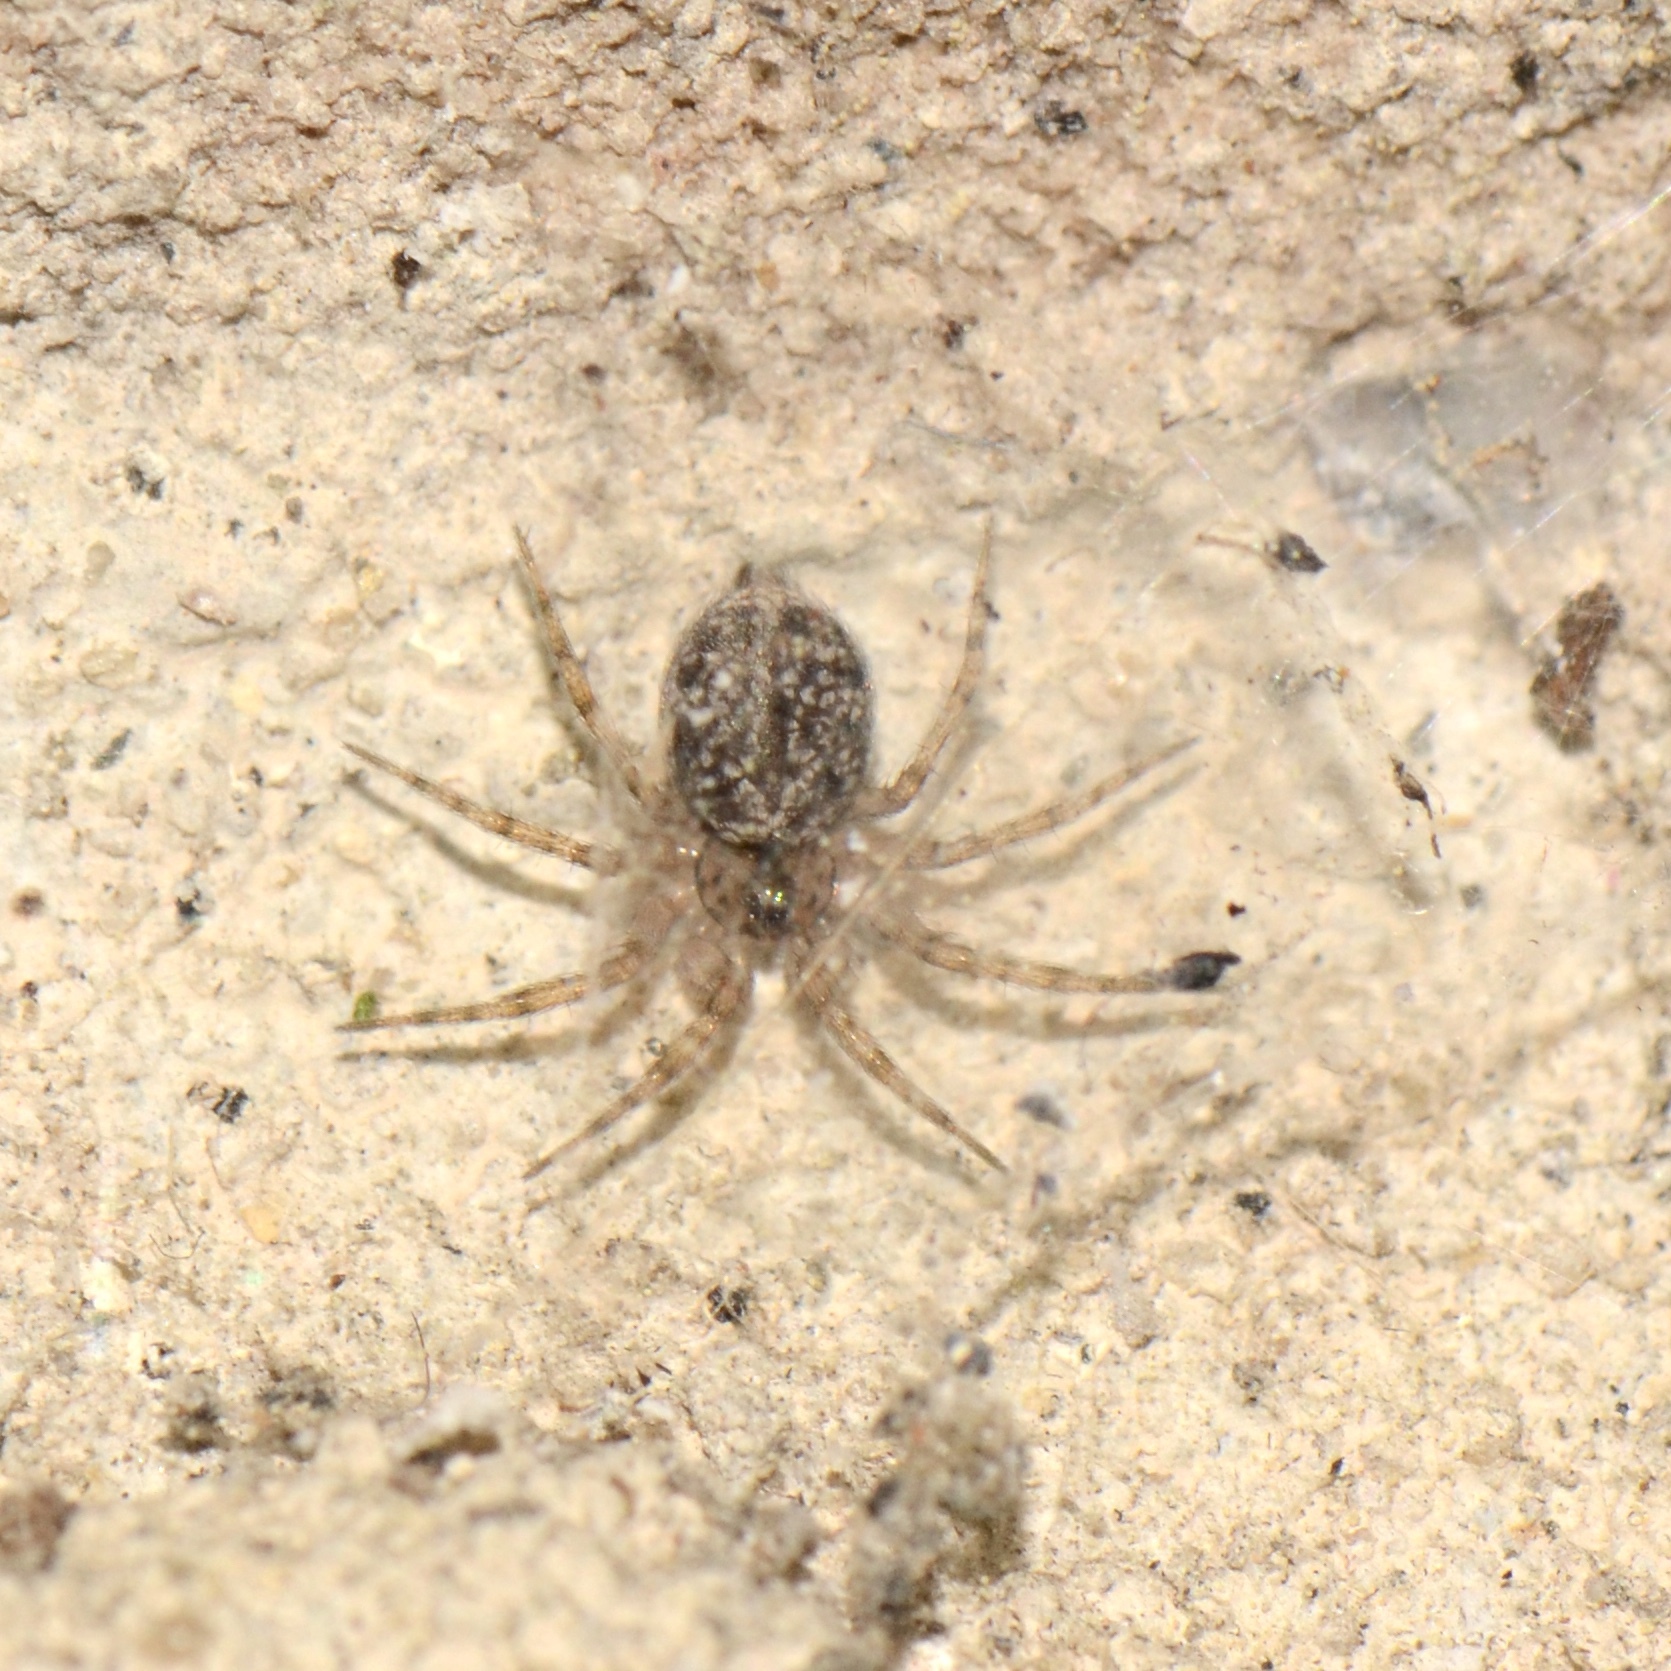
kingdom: Animalia
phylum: Arthropoda
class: Arachnida
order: Araneae
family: Oecobiidae
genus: Oecobius
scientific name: Oecobius navus
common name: Flatmesh weaver
